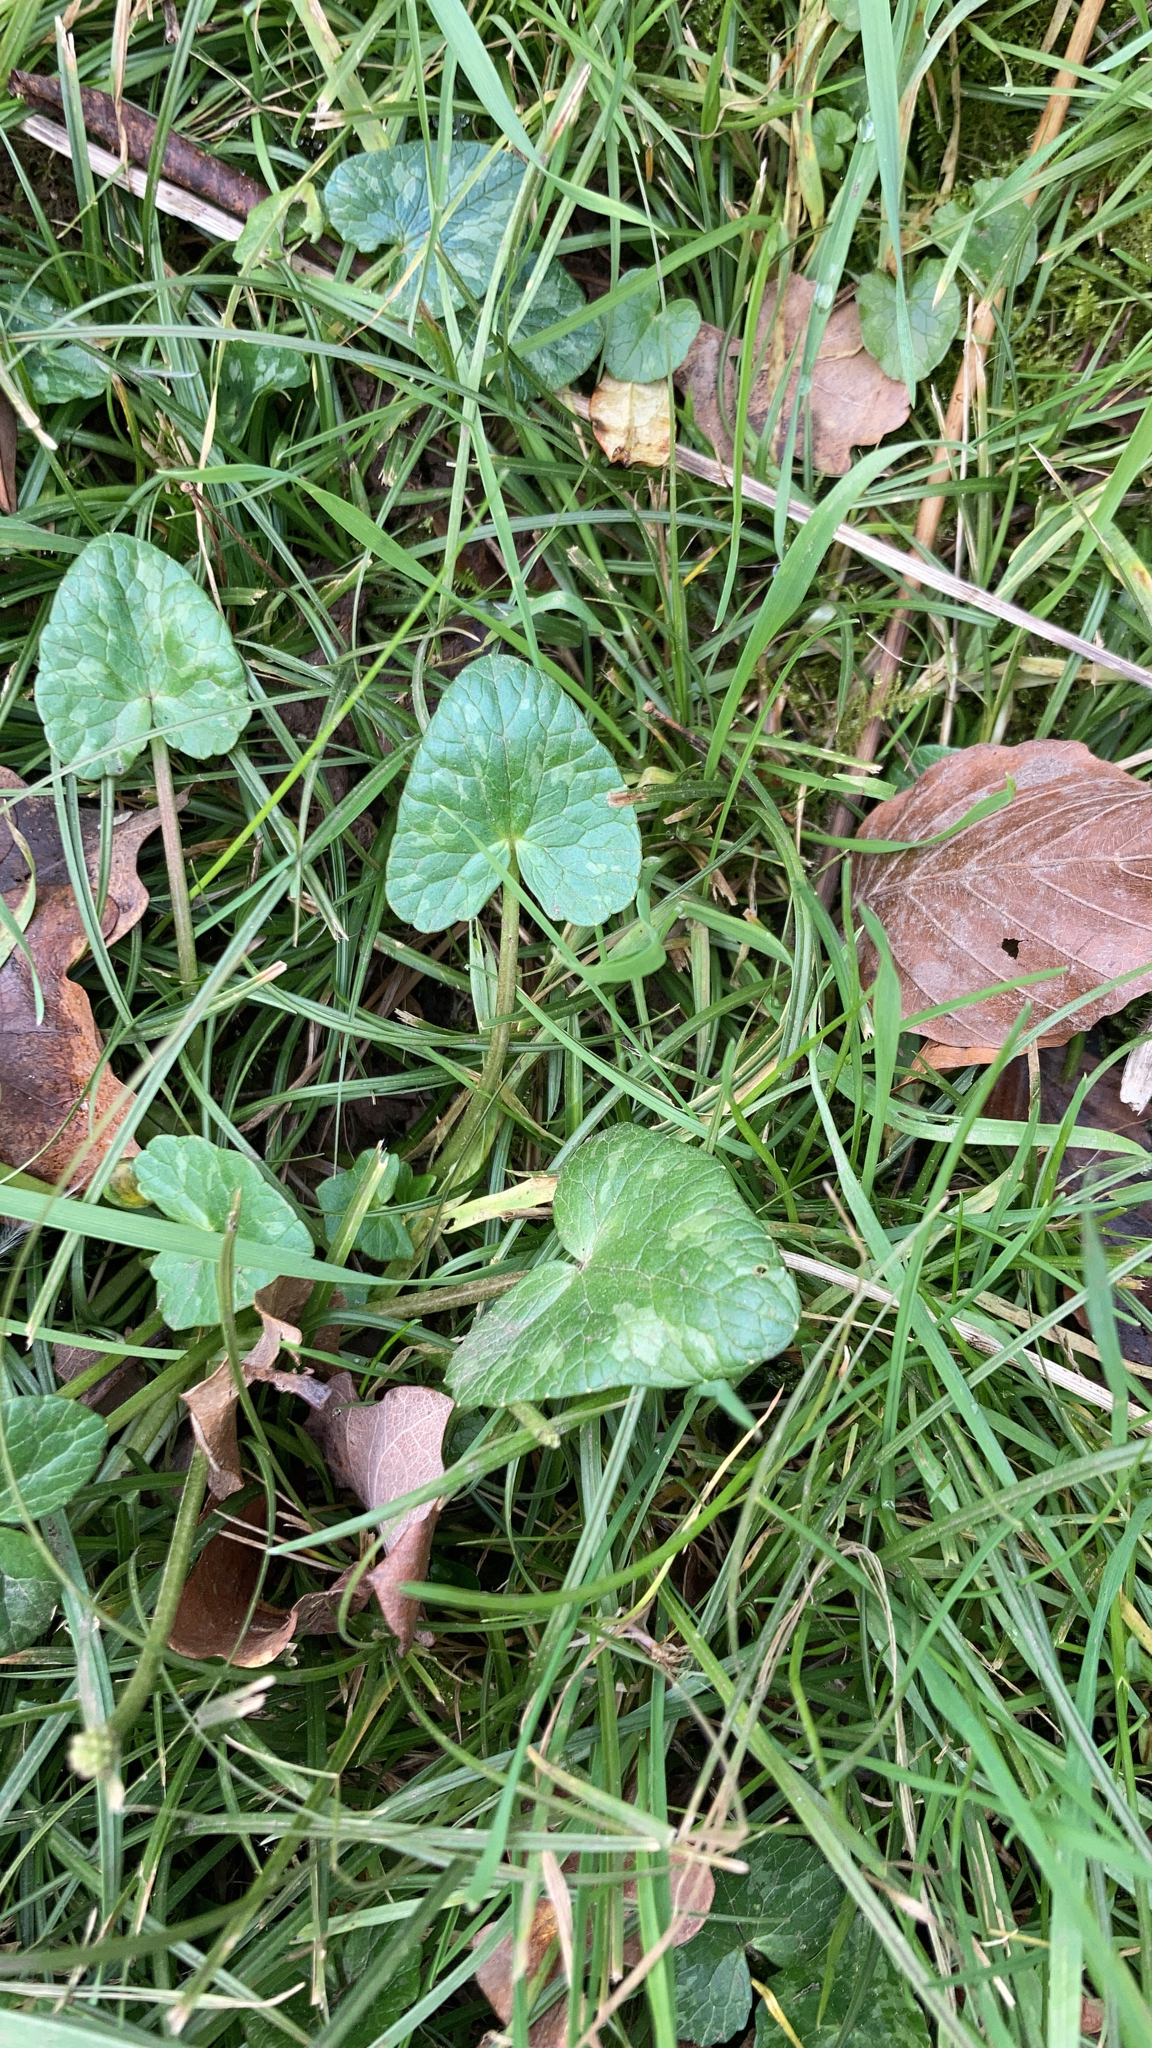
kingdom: Plantae
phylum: Tracheophyta
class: Magnoliopsida
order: Ranunculales
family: Ranunculaceae
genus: Ficaria
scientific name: Ficaria verna
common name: Lesser celandine
